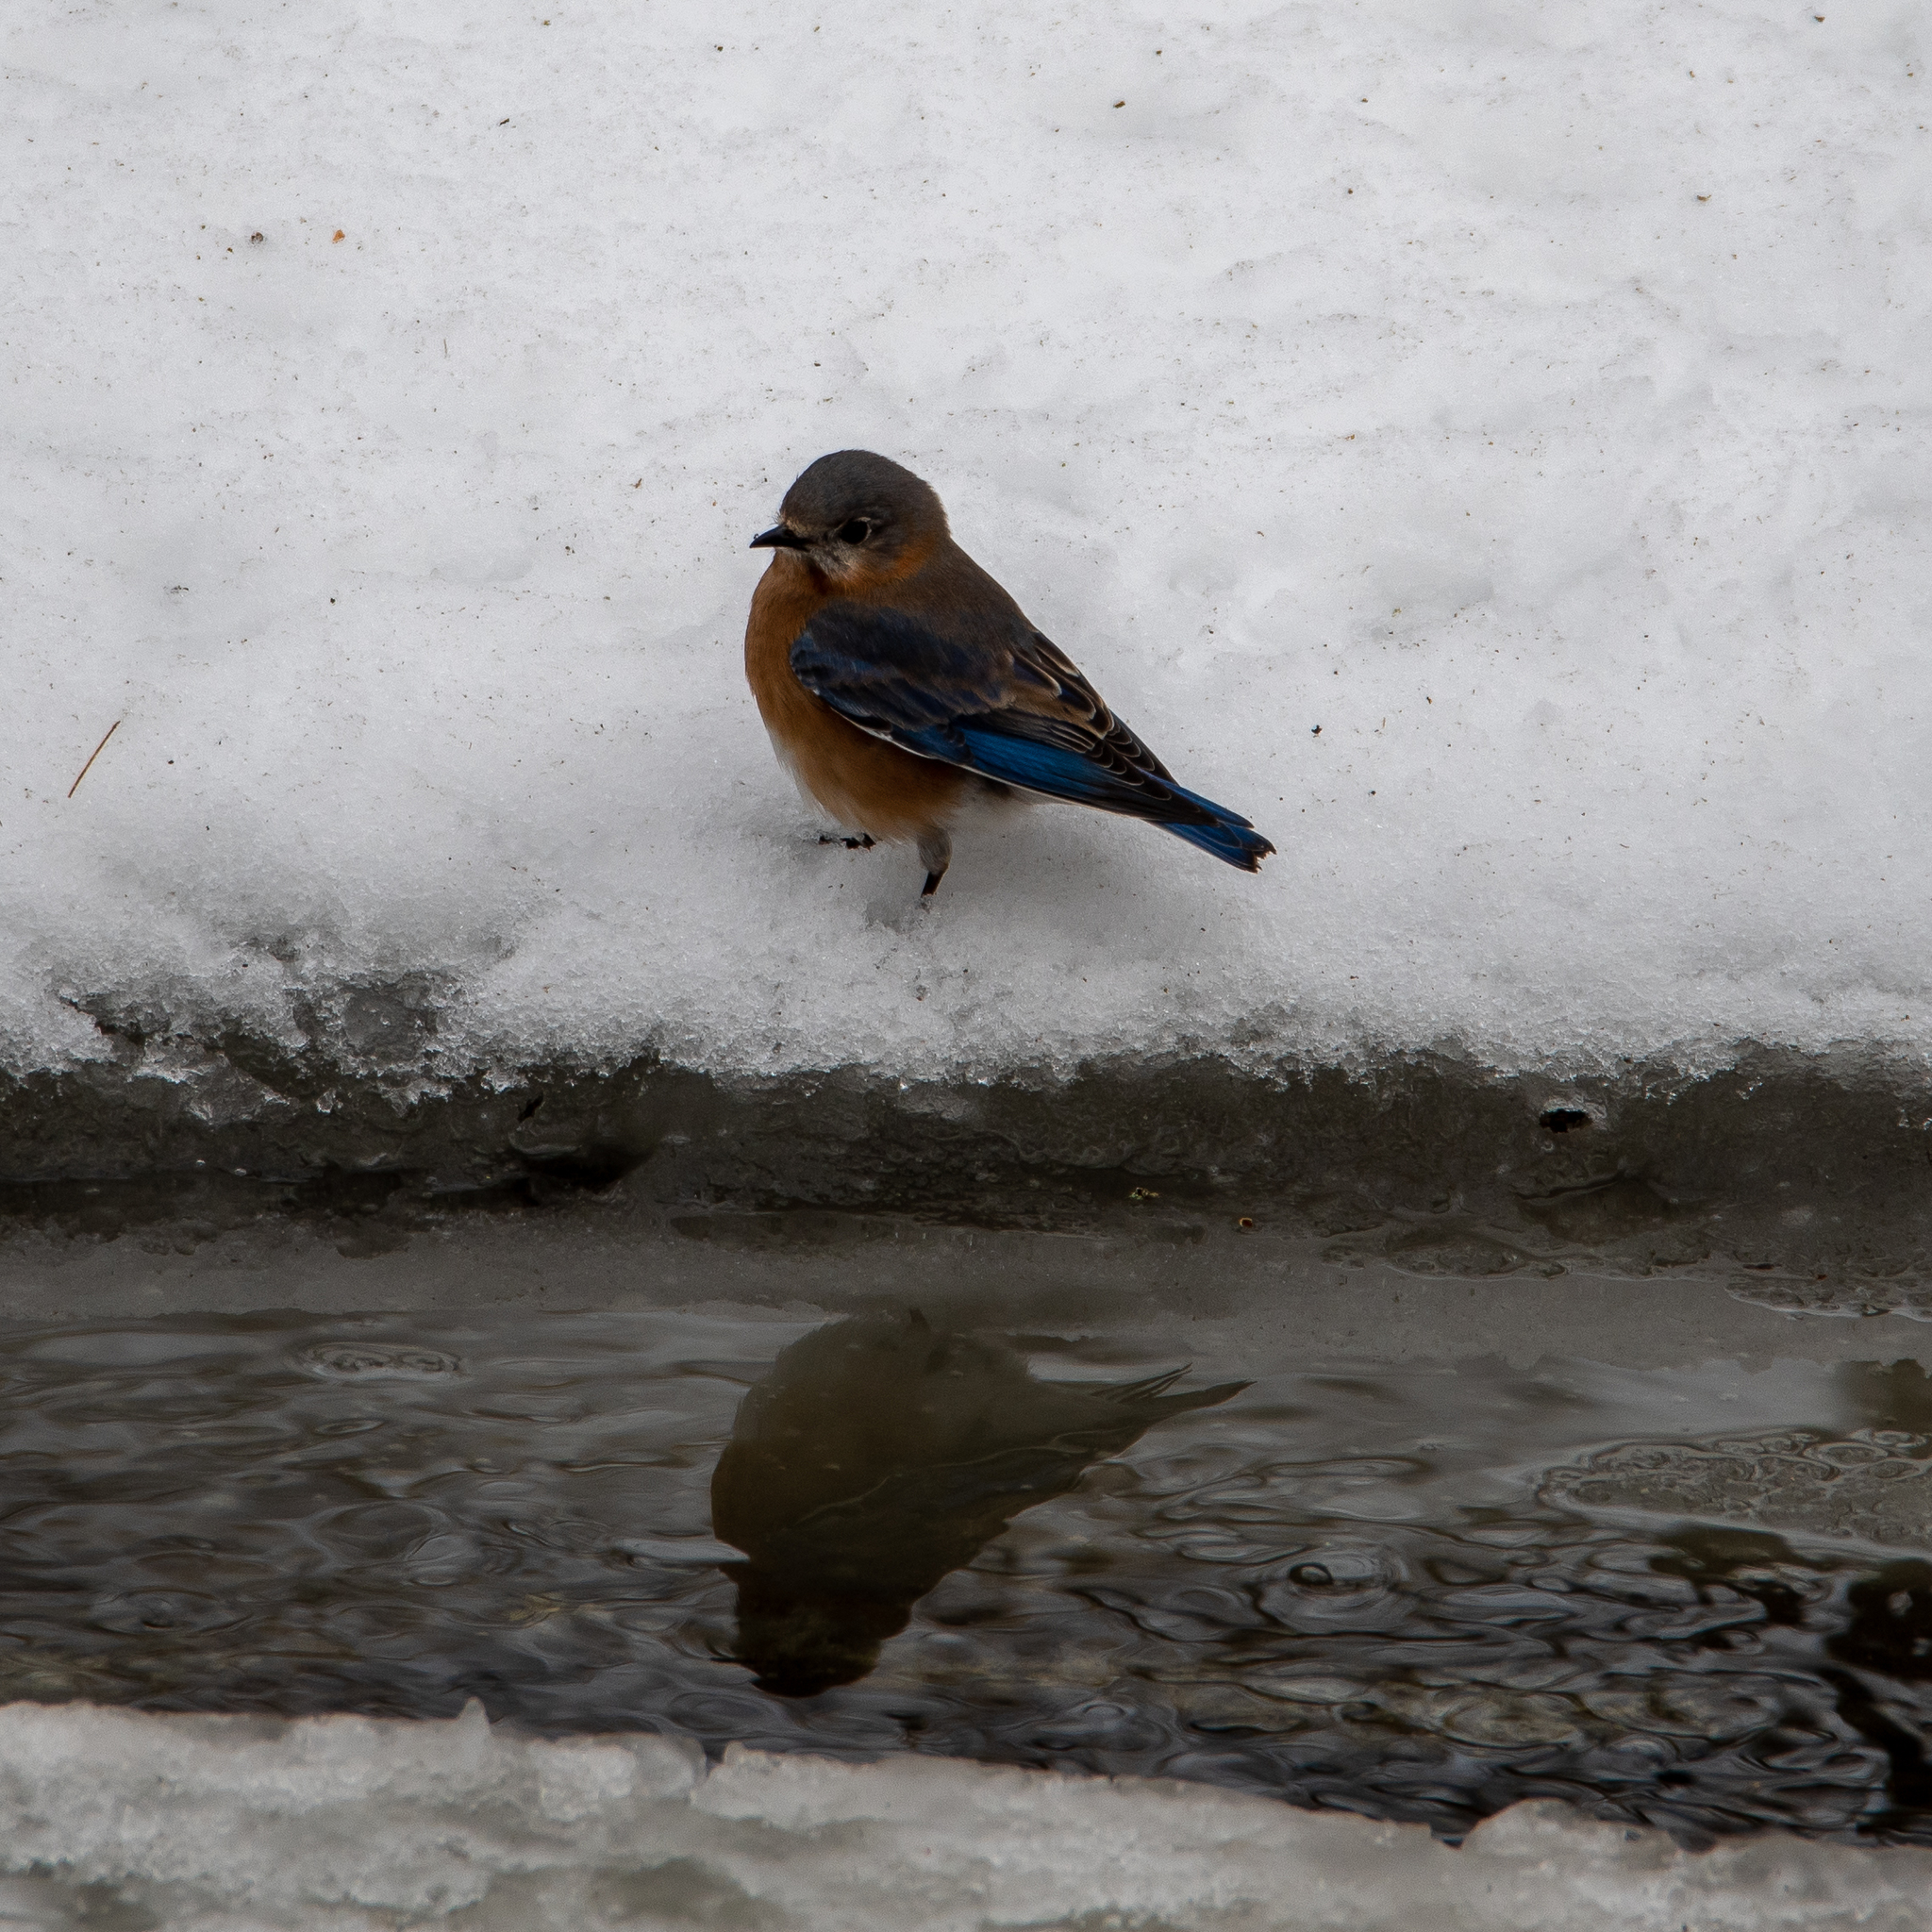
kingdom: Animalia
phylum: Chordata
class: Aves
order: Passeriformes
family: Turdidae
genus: Sialia
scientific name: Sialia sialis
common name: Eastern bluebird
